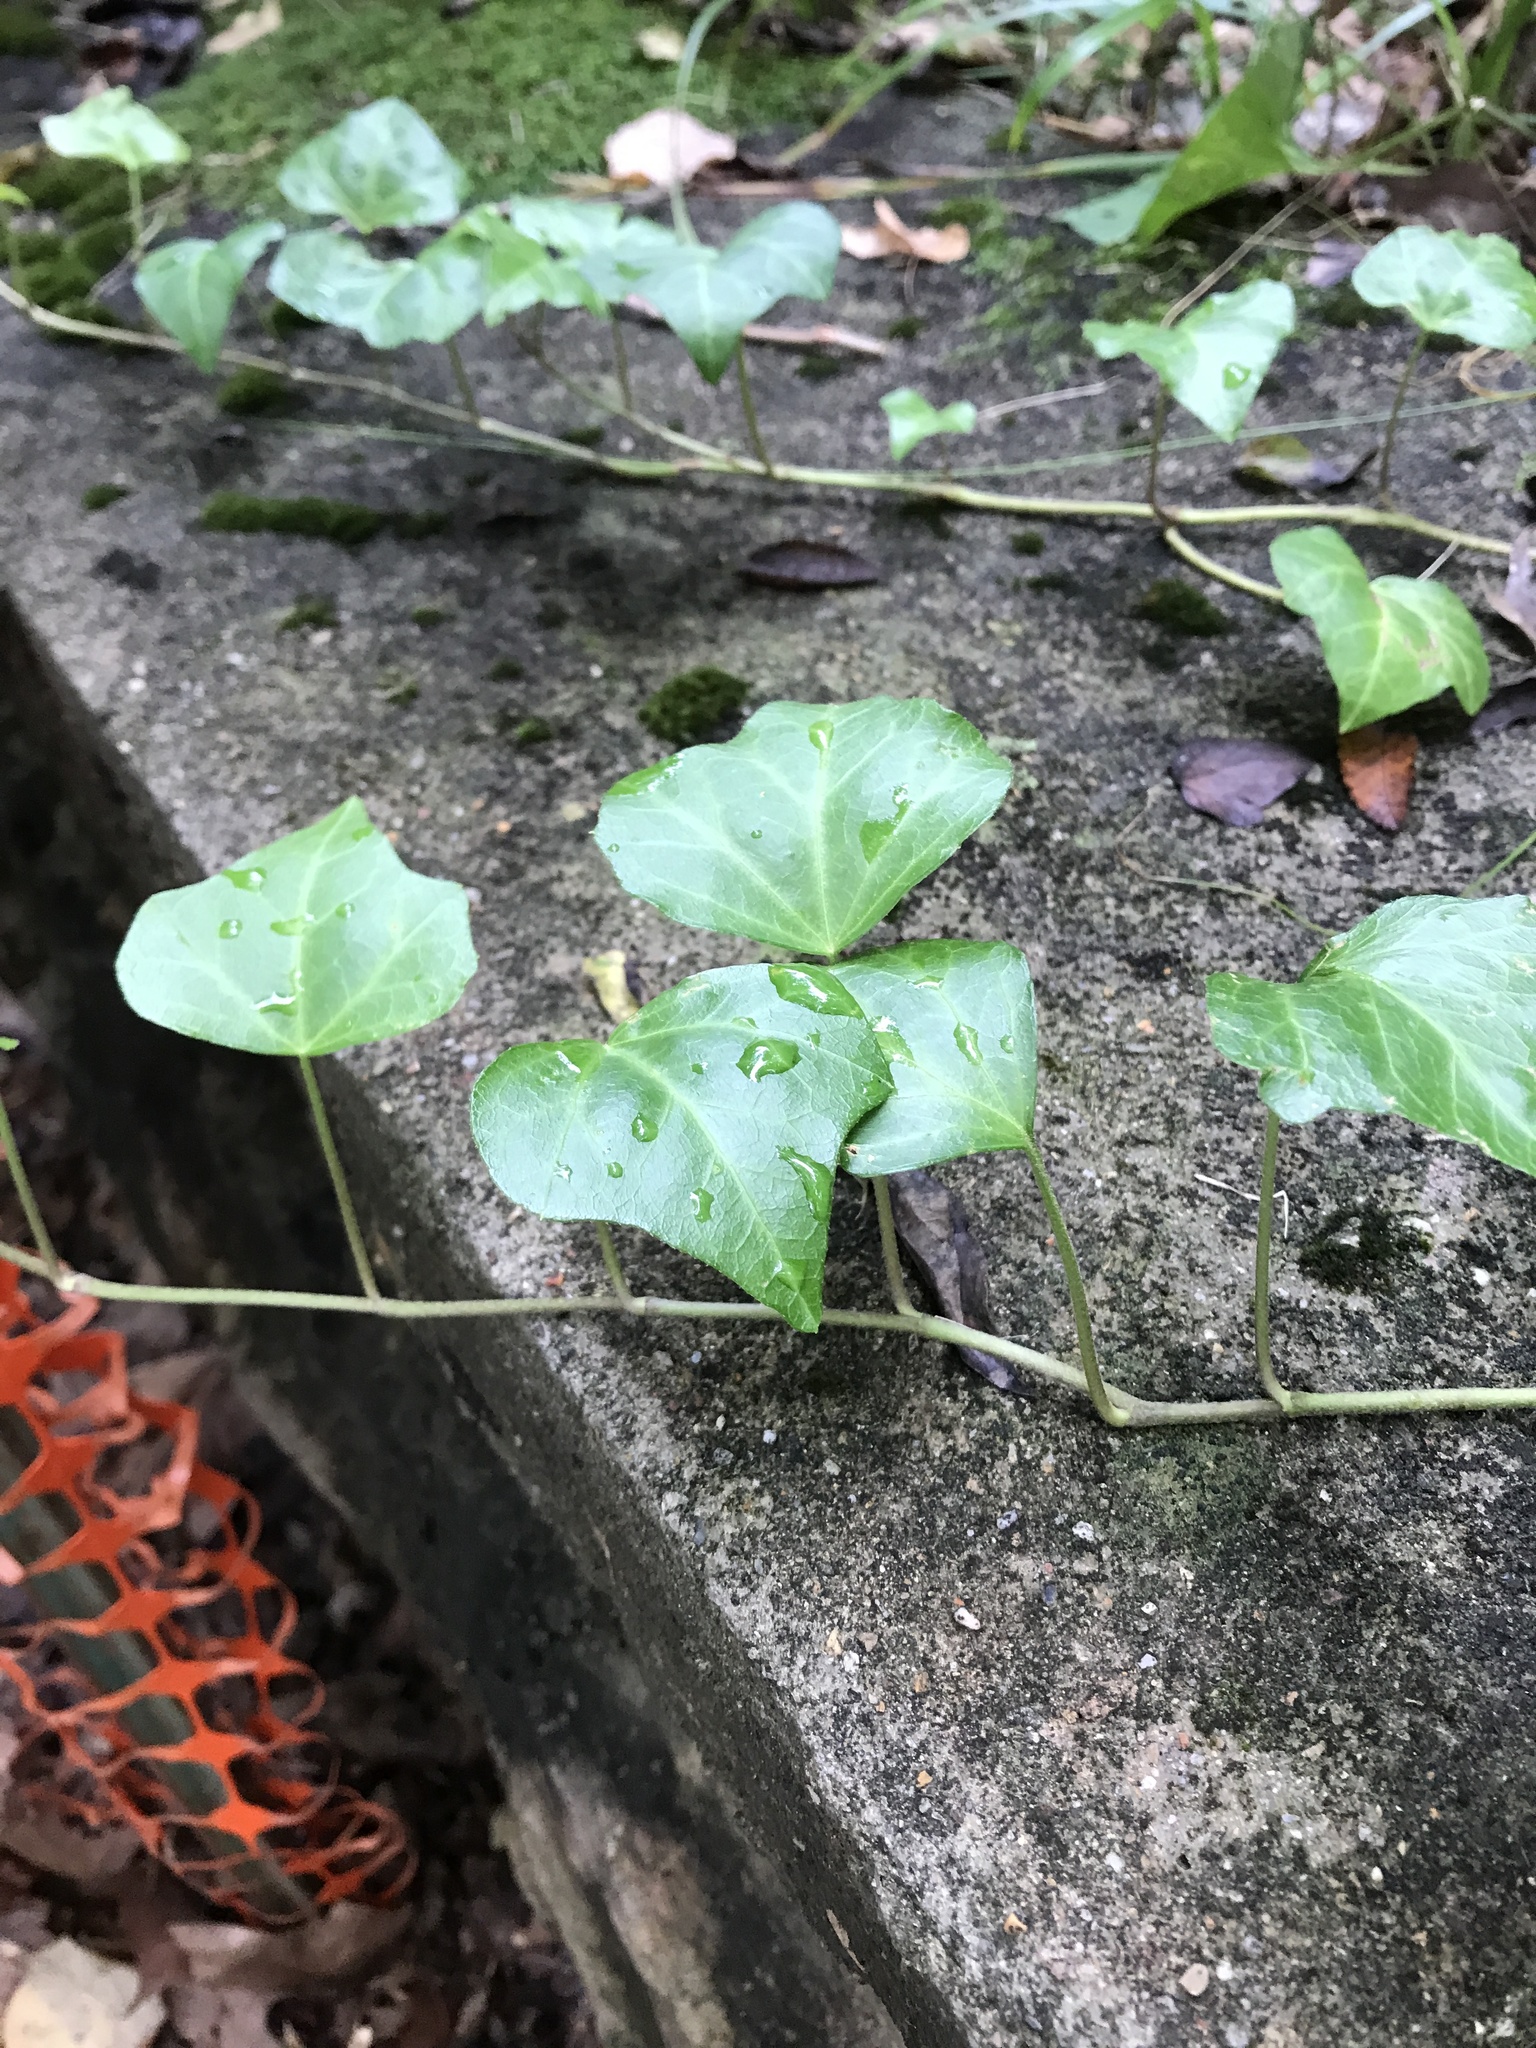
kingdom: Plantae
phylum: Tracheophyta
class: Magnoliopsida
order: Apiales
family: Araliaceae
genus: Hedera
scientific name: Hedera helix
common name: Ivy
